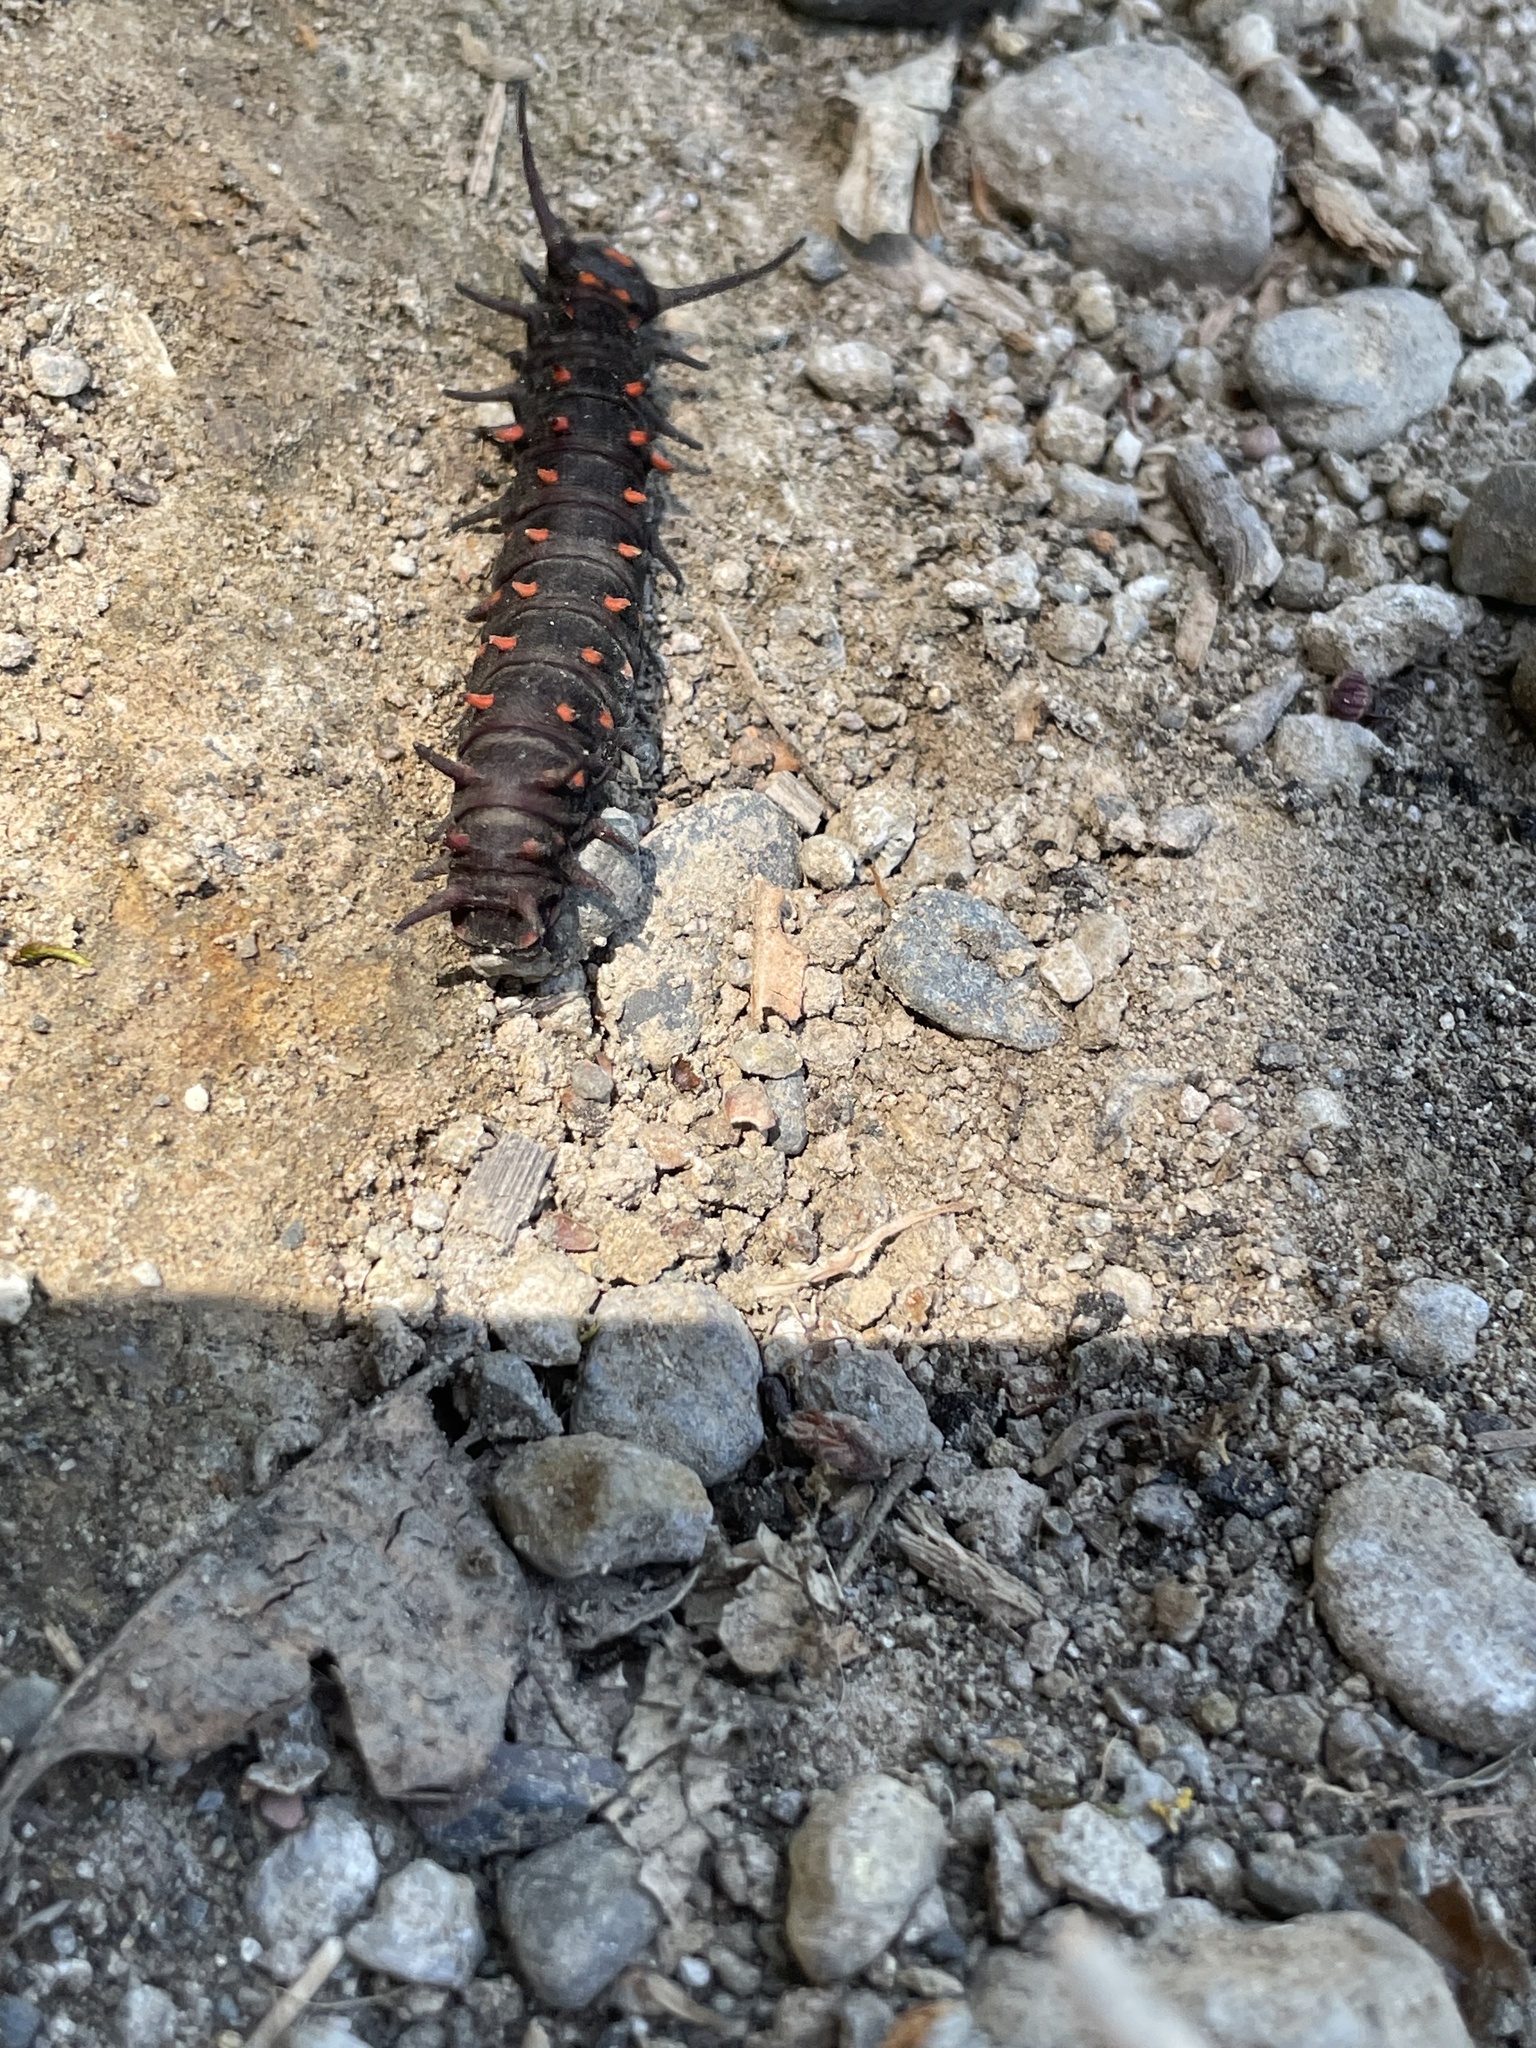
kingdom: Animalia
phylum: Arthropoda
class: Insecta
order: Lepidoptera
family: Papilionidae
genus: Battus
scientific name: Battus philenor
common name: Pipevine swallowtail
